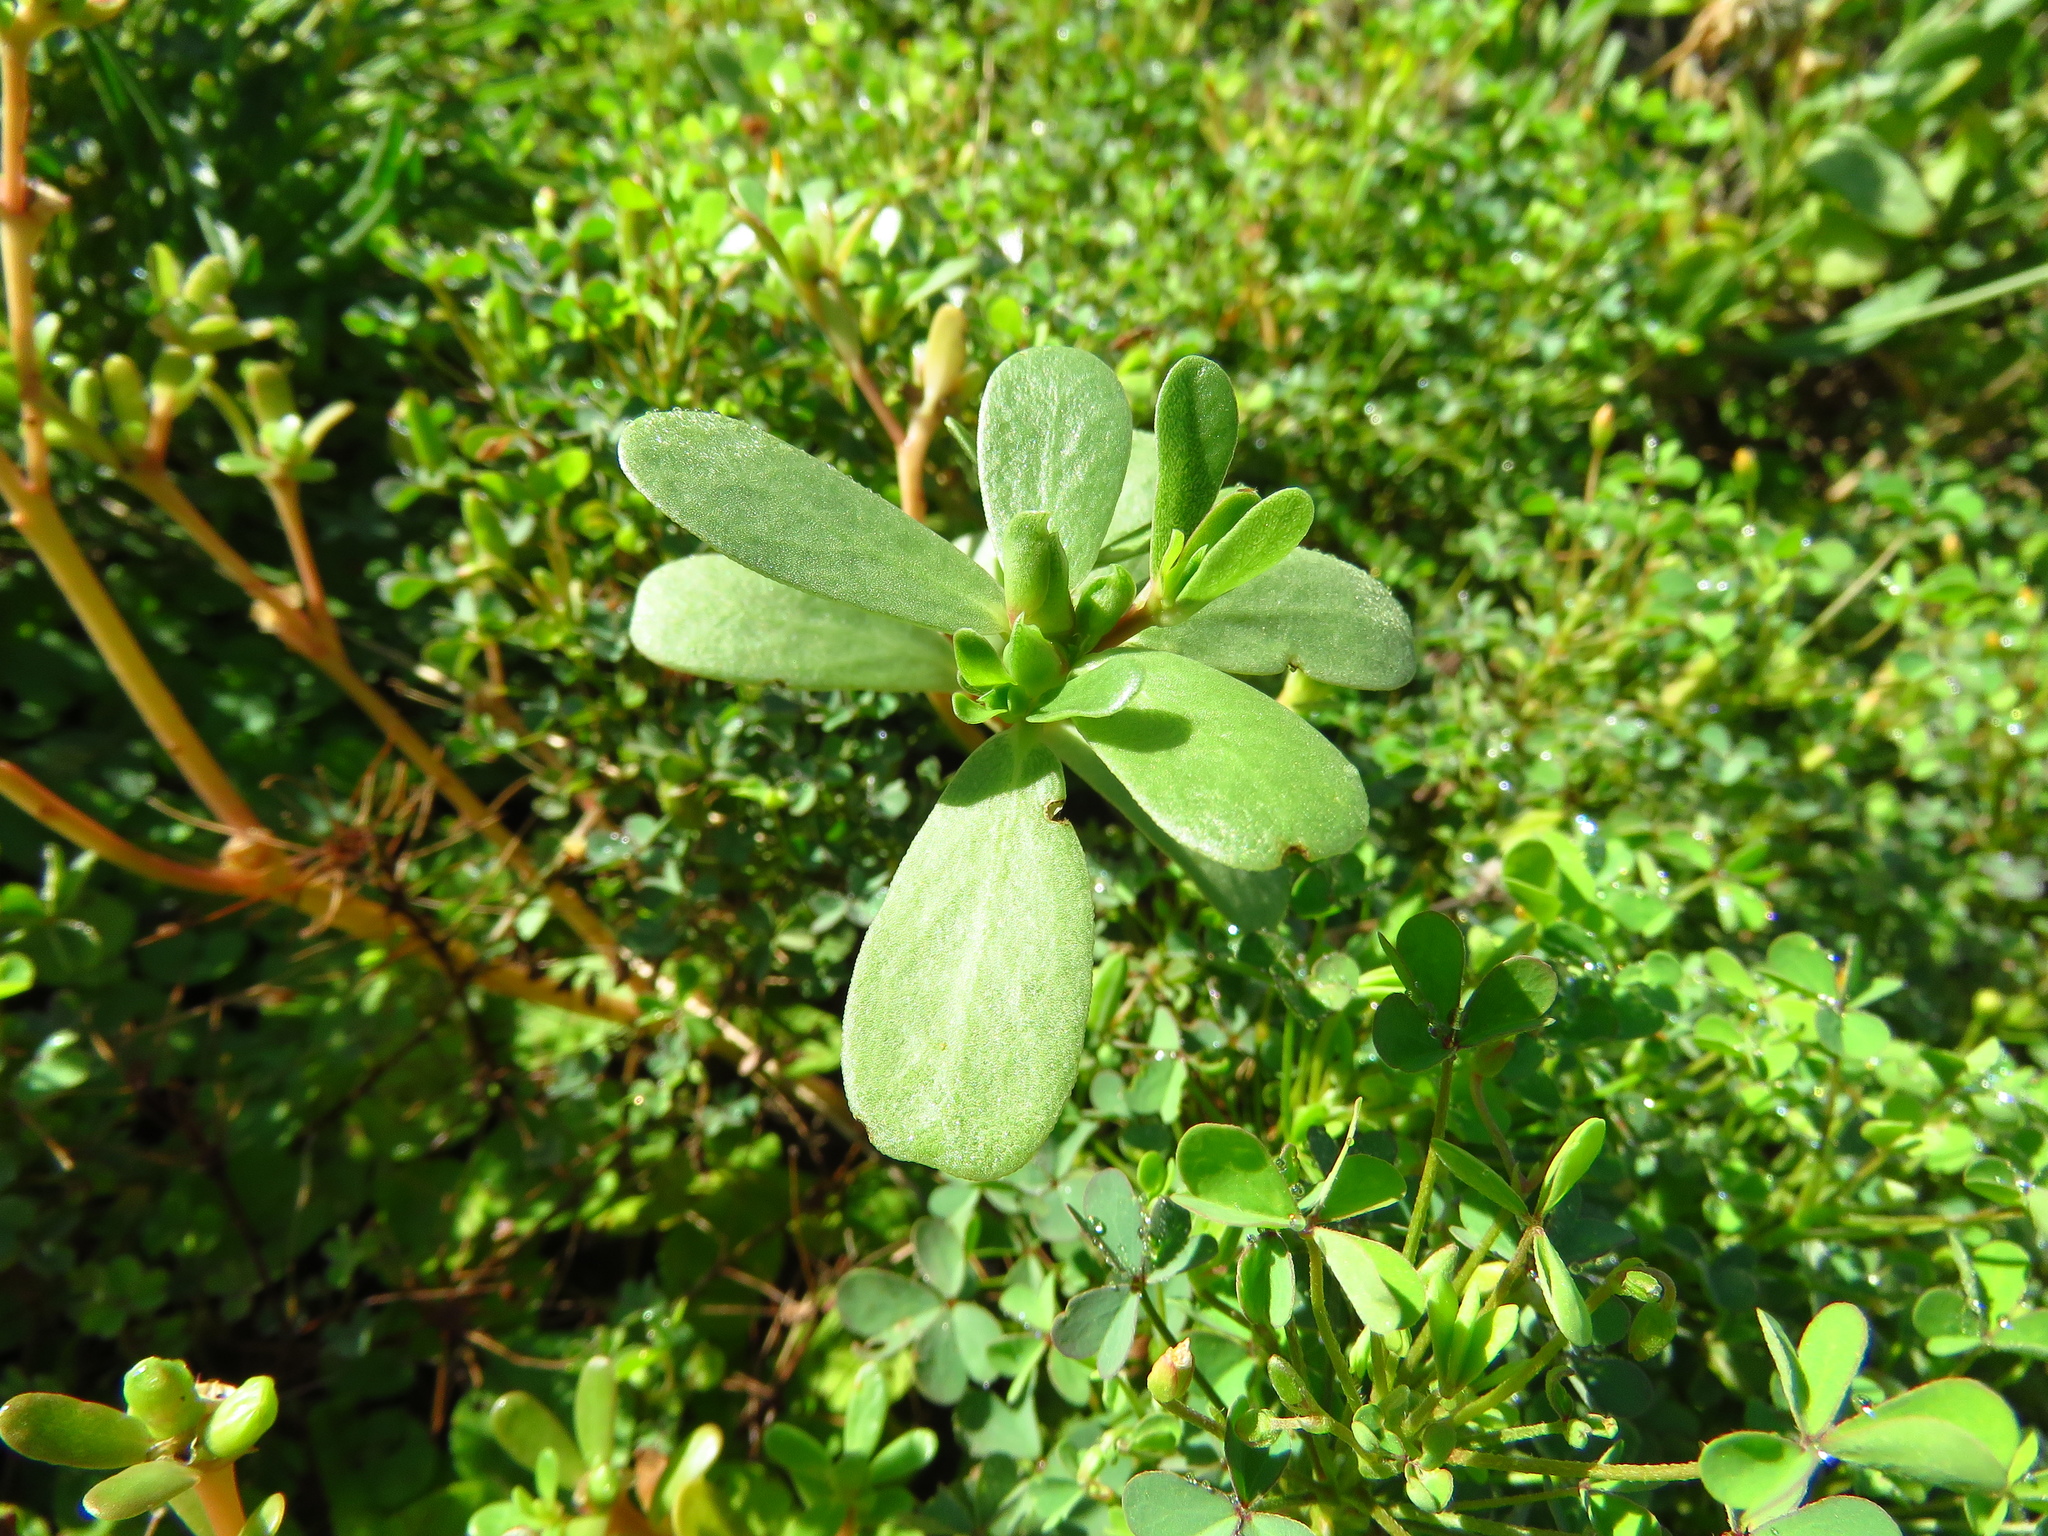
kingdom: Plantae
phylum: Tracheophyta
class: Magnoliopsida
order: Caryophyllales
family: Portulacaceae
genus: Portulaca
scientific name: Portulaca oleracea
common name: Common purslane
